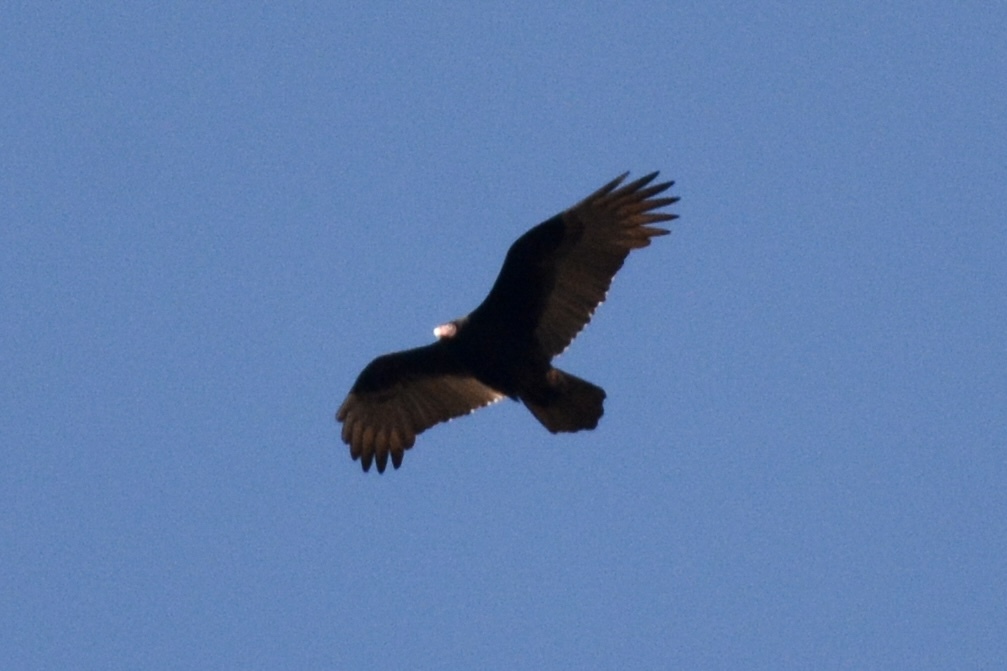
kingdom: Animalia
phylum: Chordata
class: Aves
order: Accipitriformes
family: Cathartidae
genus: Cathartes
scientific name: Cathartes aura
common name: Turkey vulture
